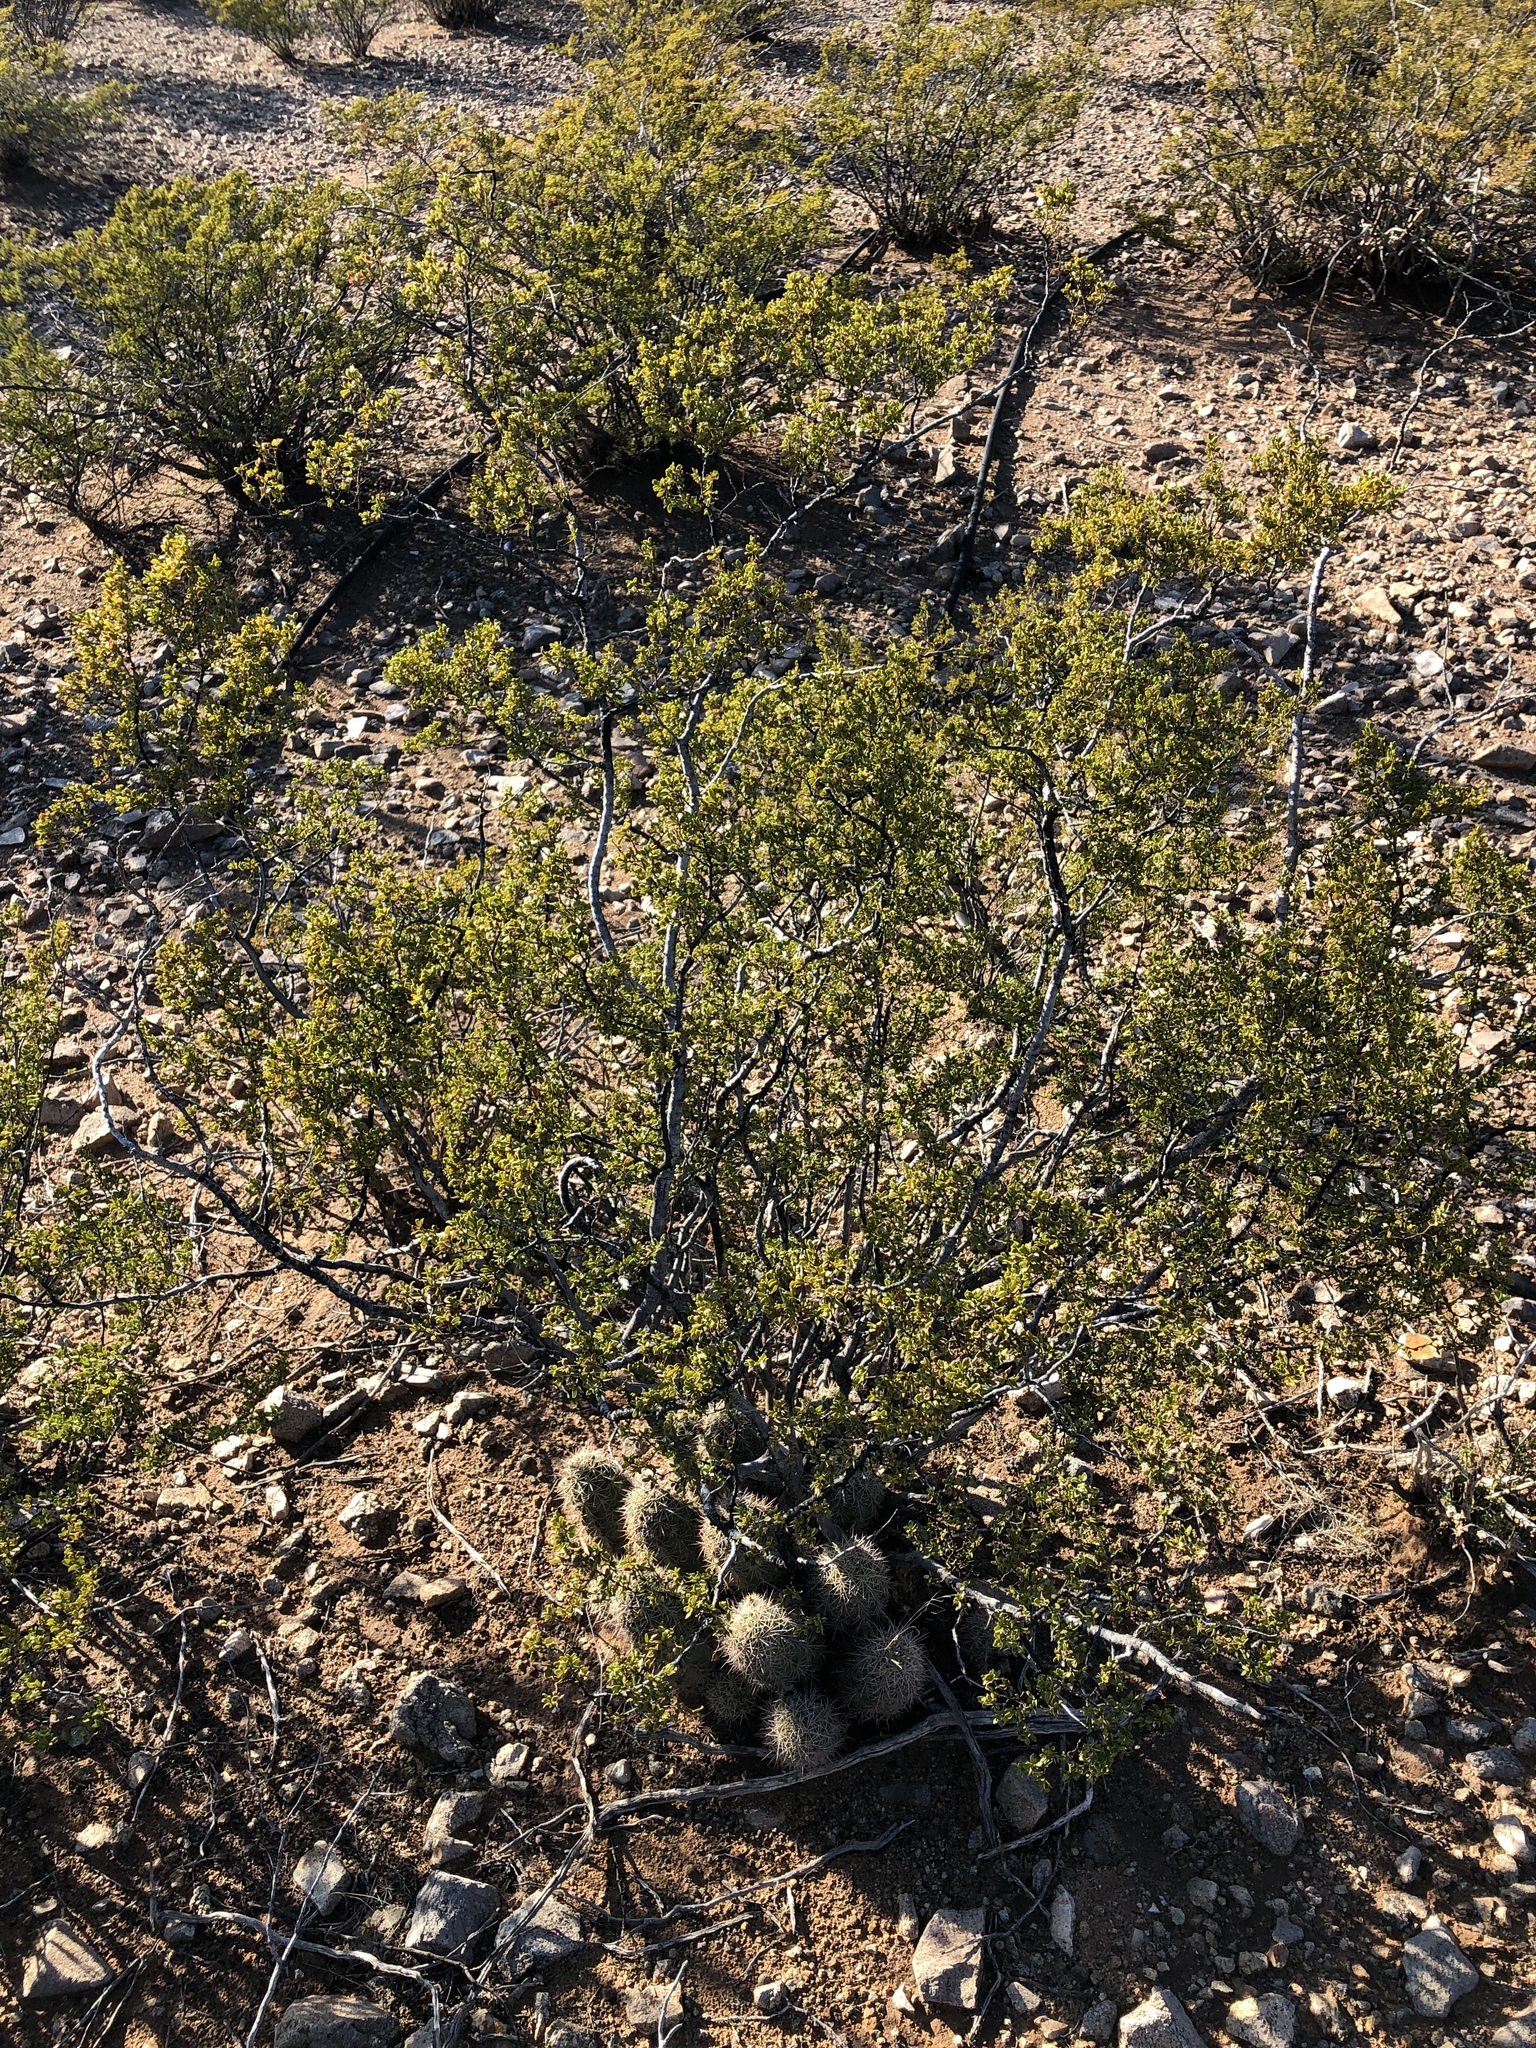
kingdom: Plantae
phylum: Tracheophyta
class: Magnoliopsida
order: Zygophyllales
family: Zygophyllaceae
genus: Larrea
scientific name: Larrea tridentata
